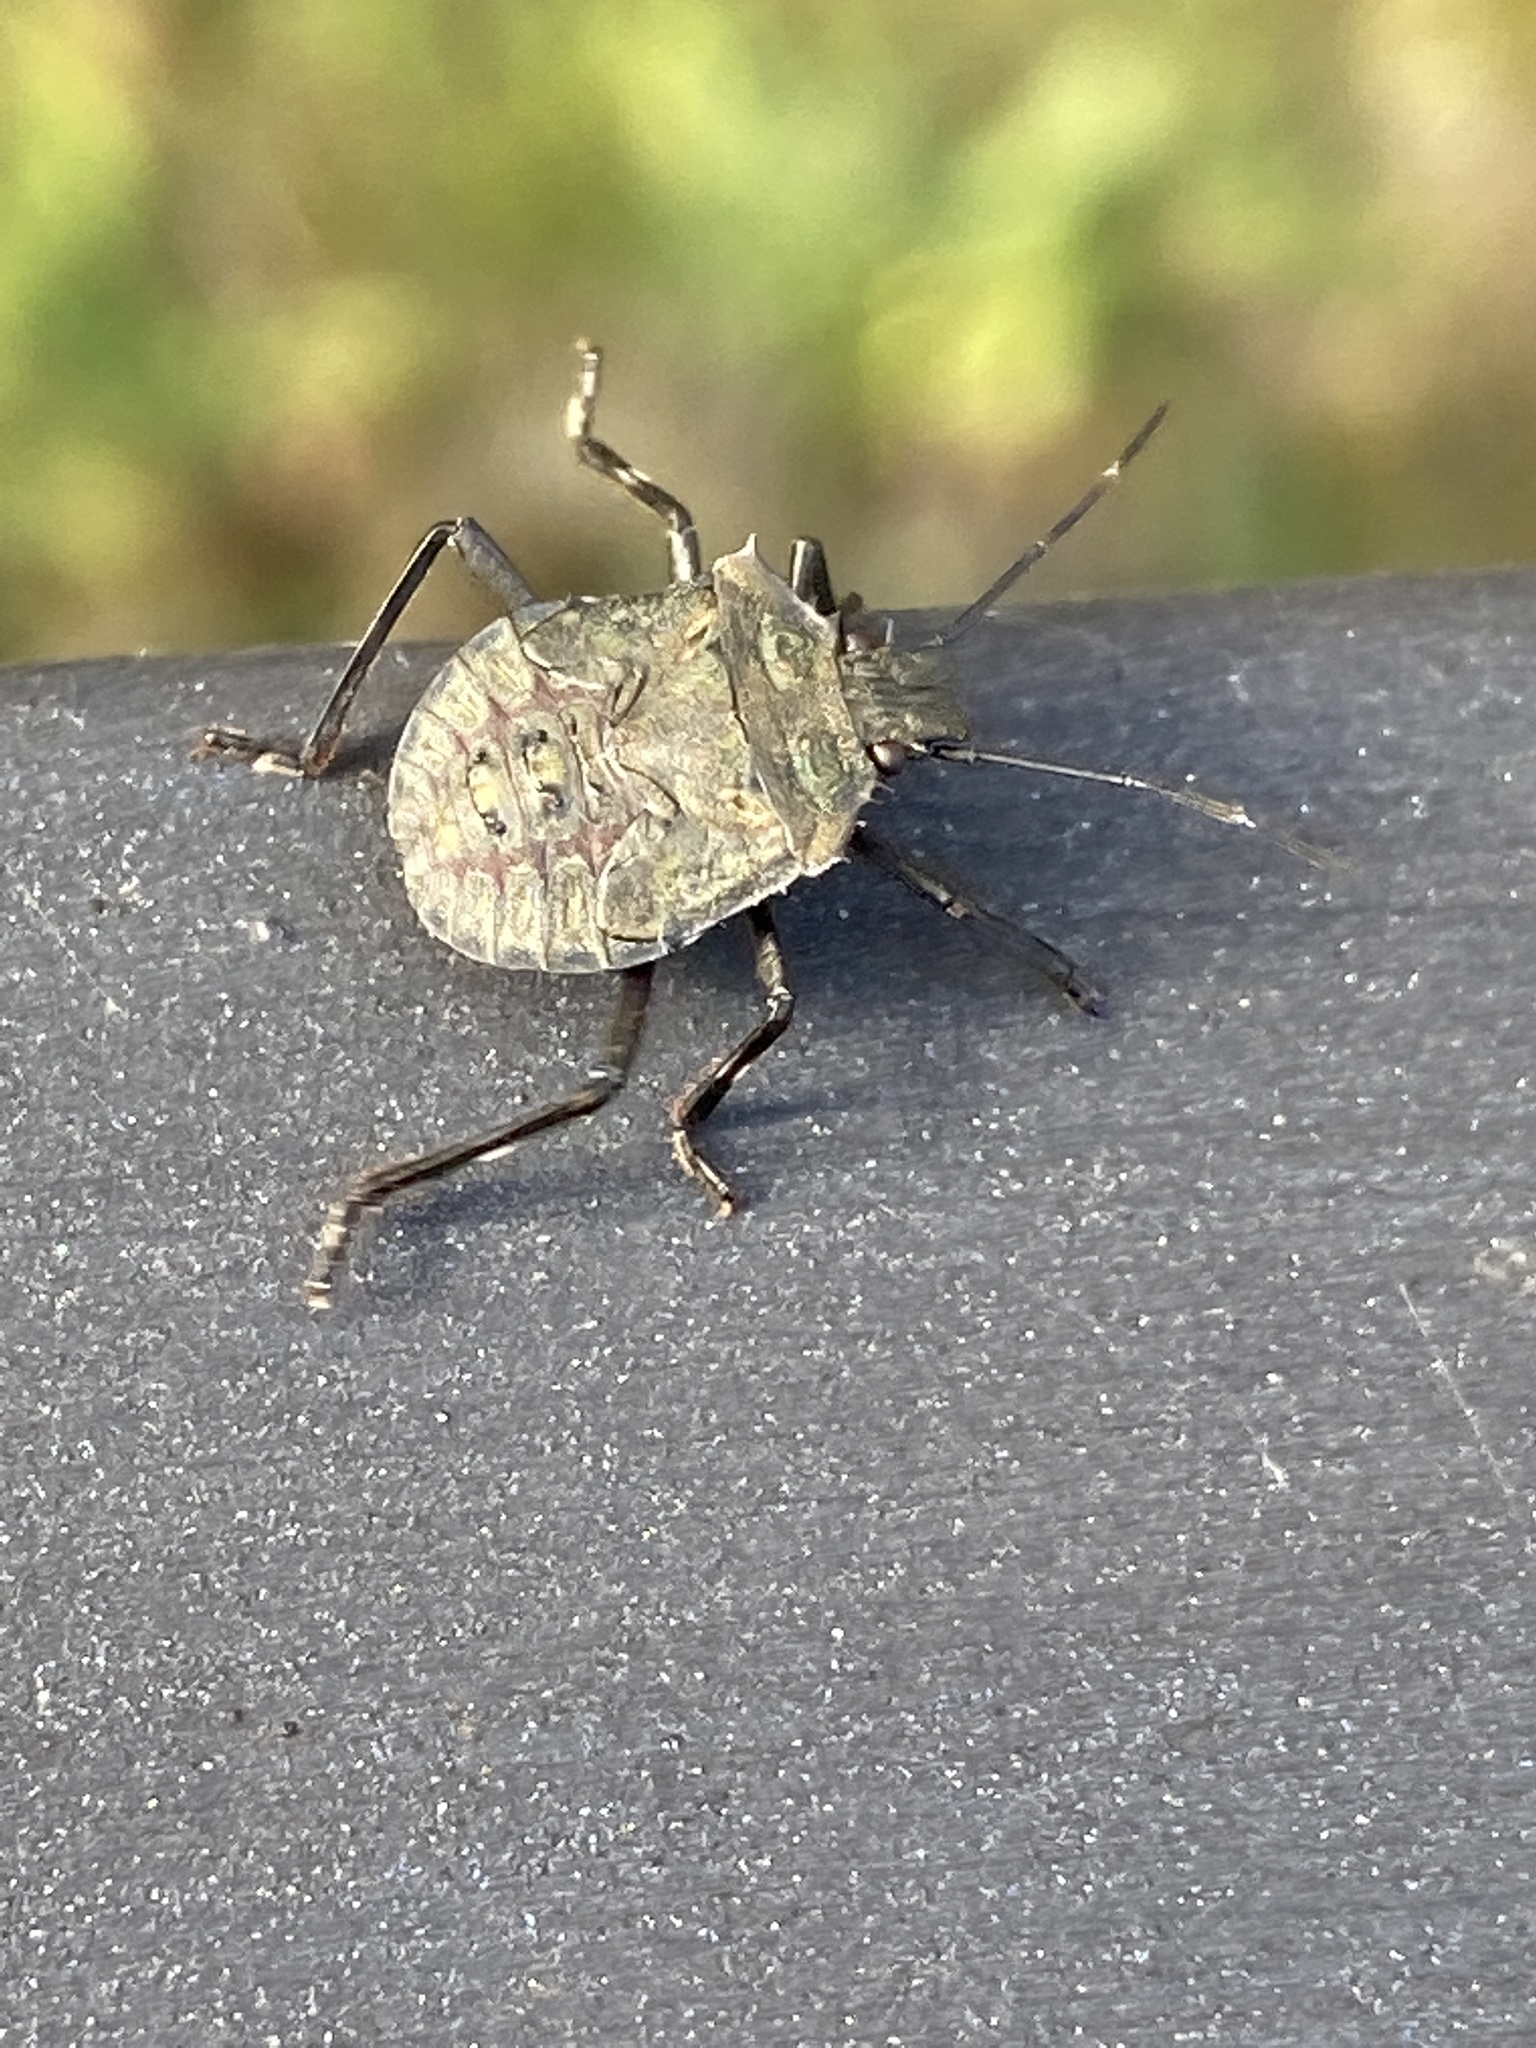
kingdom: Animalia
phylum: Arthropoda
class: Insecta
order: Hemiptera
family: Pentatomidae
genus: Halyomorpha
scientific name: Halyomorpha halys
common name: Brown marmorated stink bug
